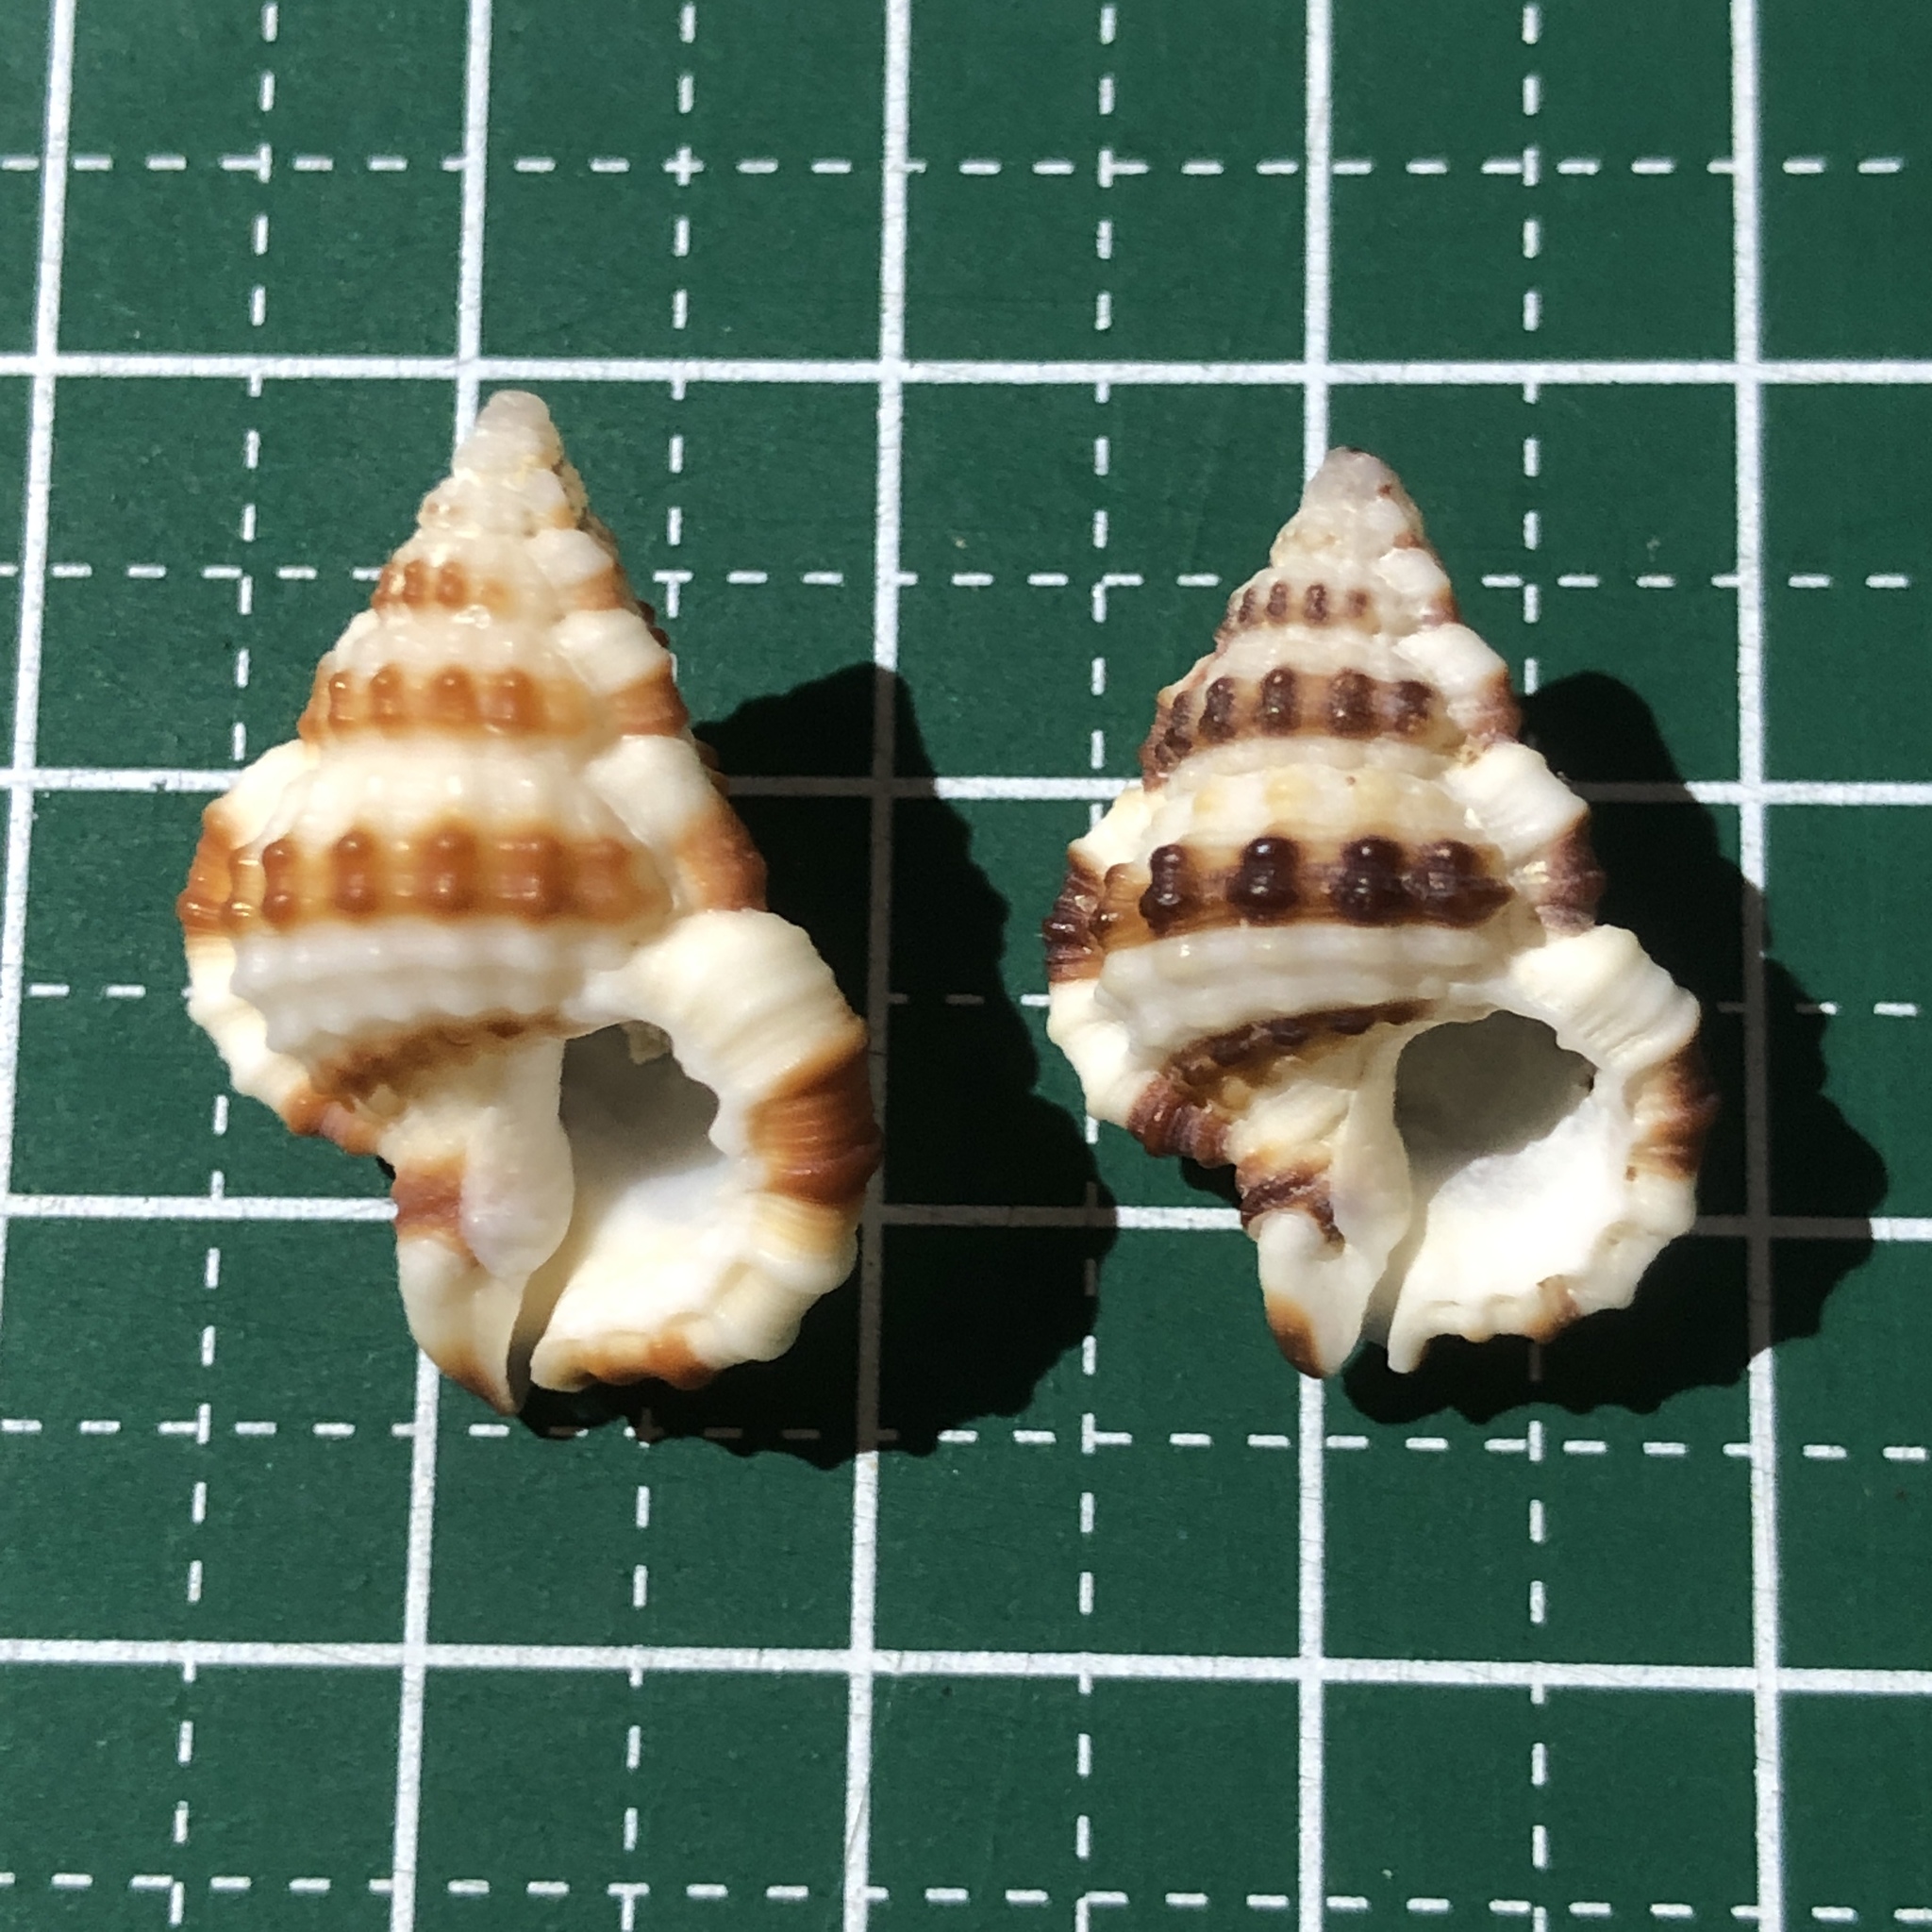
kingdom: Animalia
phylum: Mollusca
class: Gastropoda
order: Littorinimorpha
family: Cymatiidae
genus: Gyrineum
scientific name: Gyrineum gyrinum
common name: Tadpole triton
